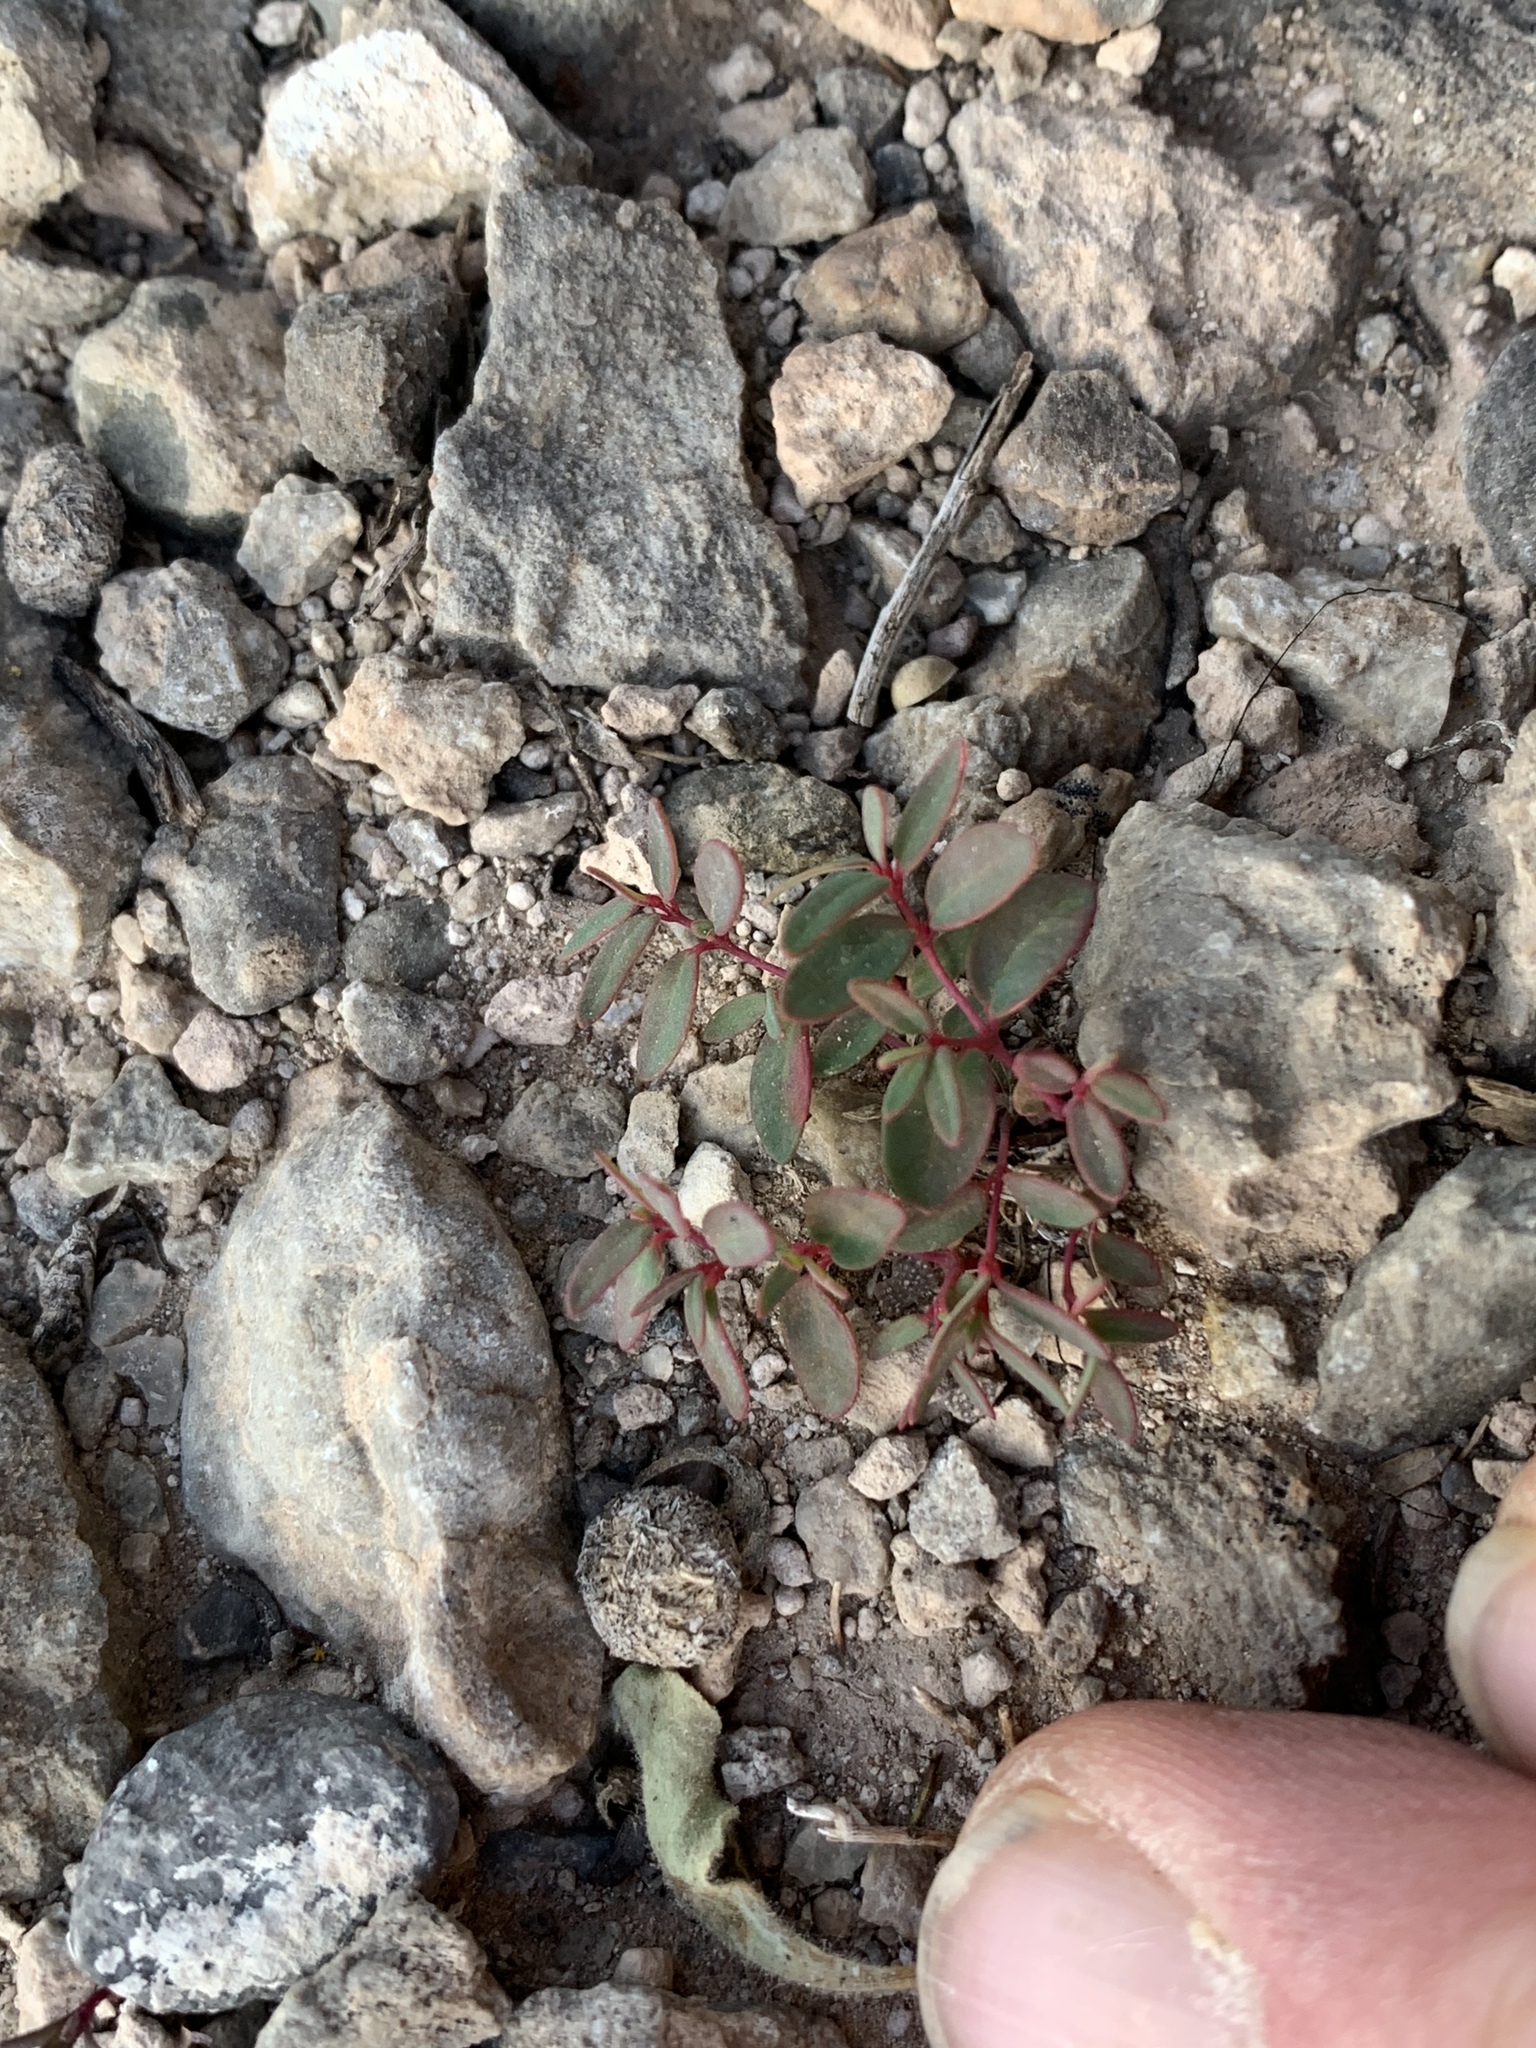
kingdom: Plantae
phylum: Tracheophyta
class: Magnoliopsida
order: Malpighiales
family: Euphorbiaceae
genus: Euphorbia
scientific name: Euphorbia chaetocalyx
